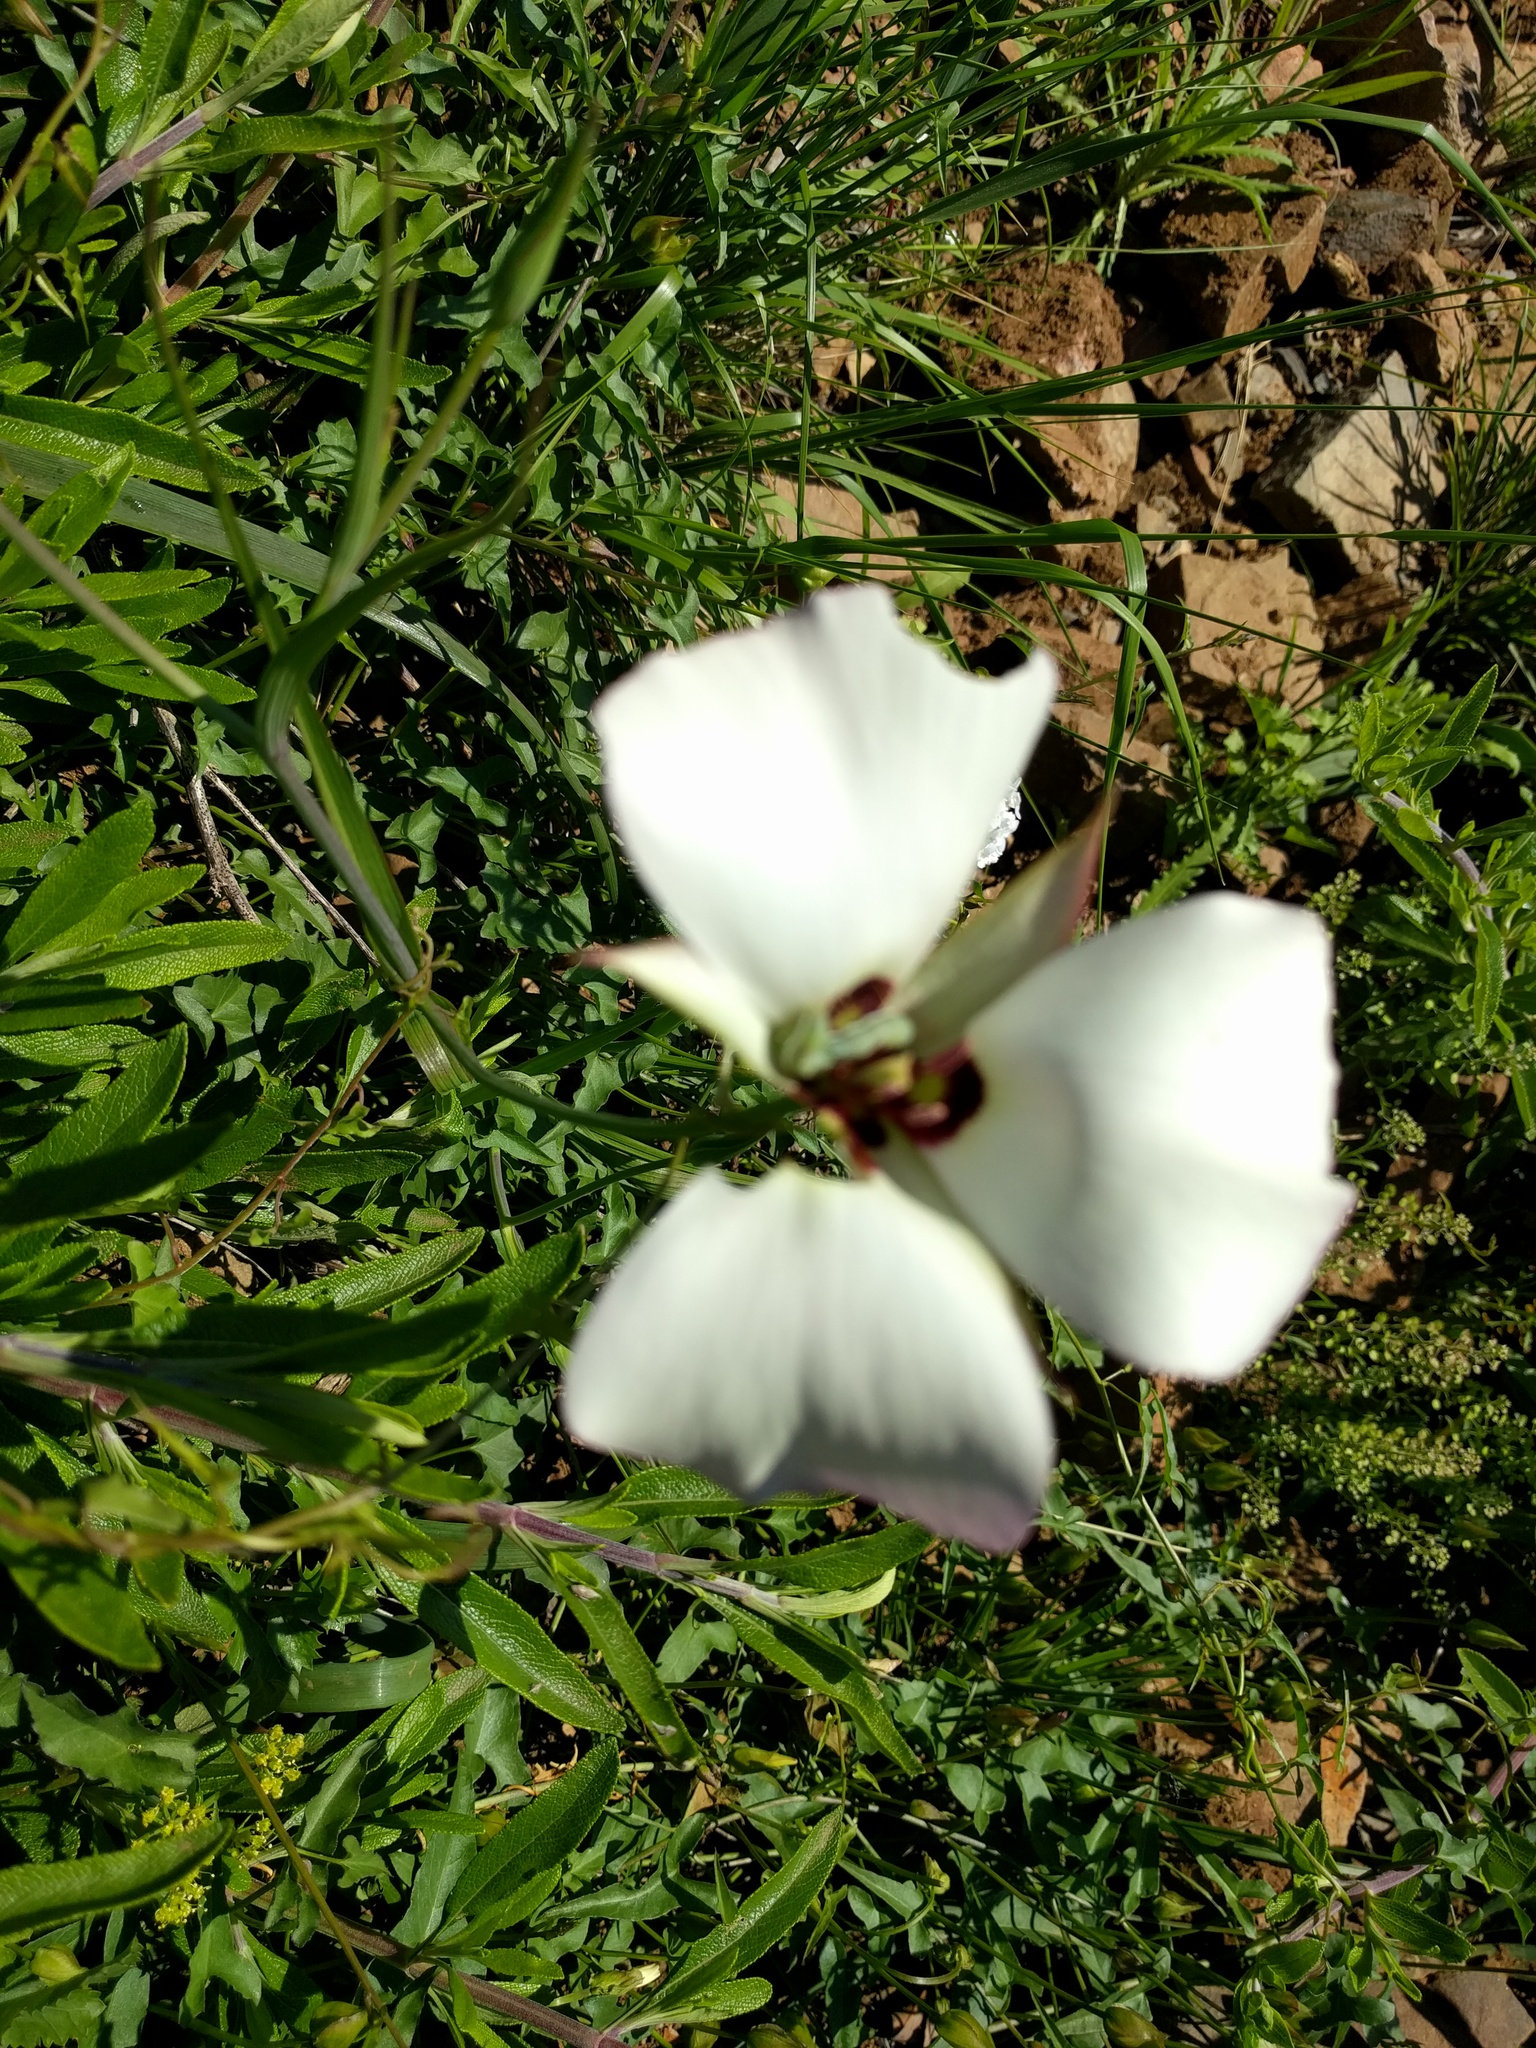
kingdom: Plantae
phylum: Tracheophyta
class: Liliopsida
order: Liliales
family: Liliaceae
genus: Calochortus
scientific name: Calochortus catalinae
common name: Catalina mariposa-lily
